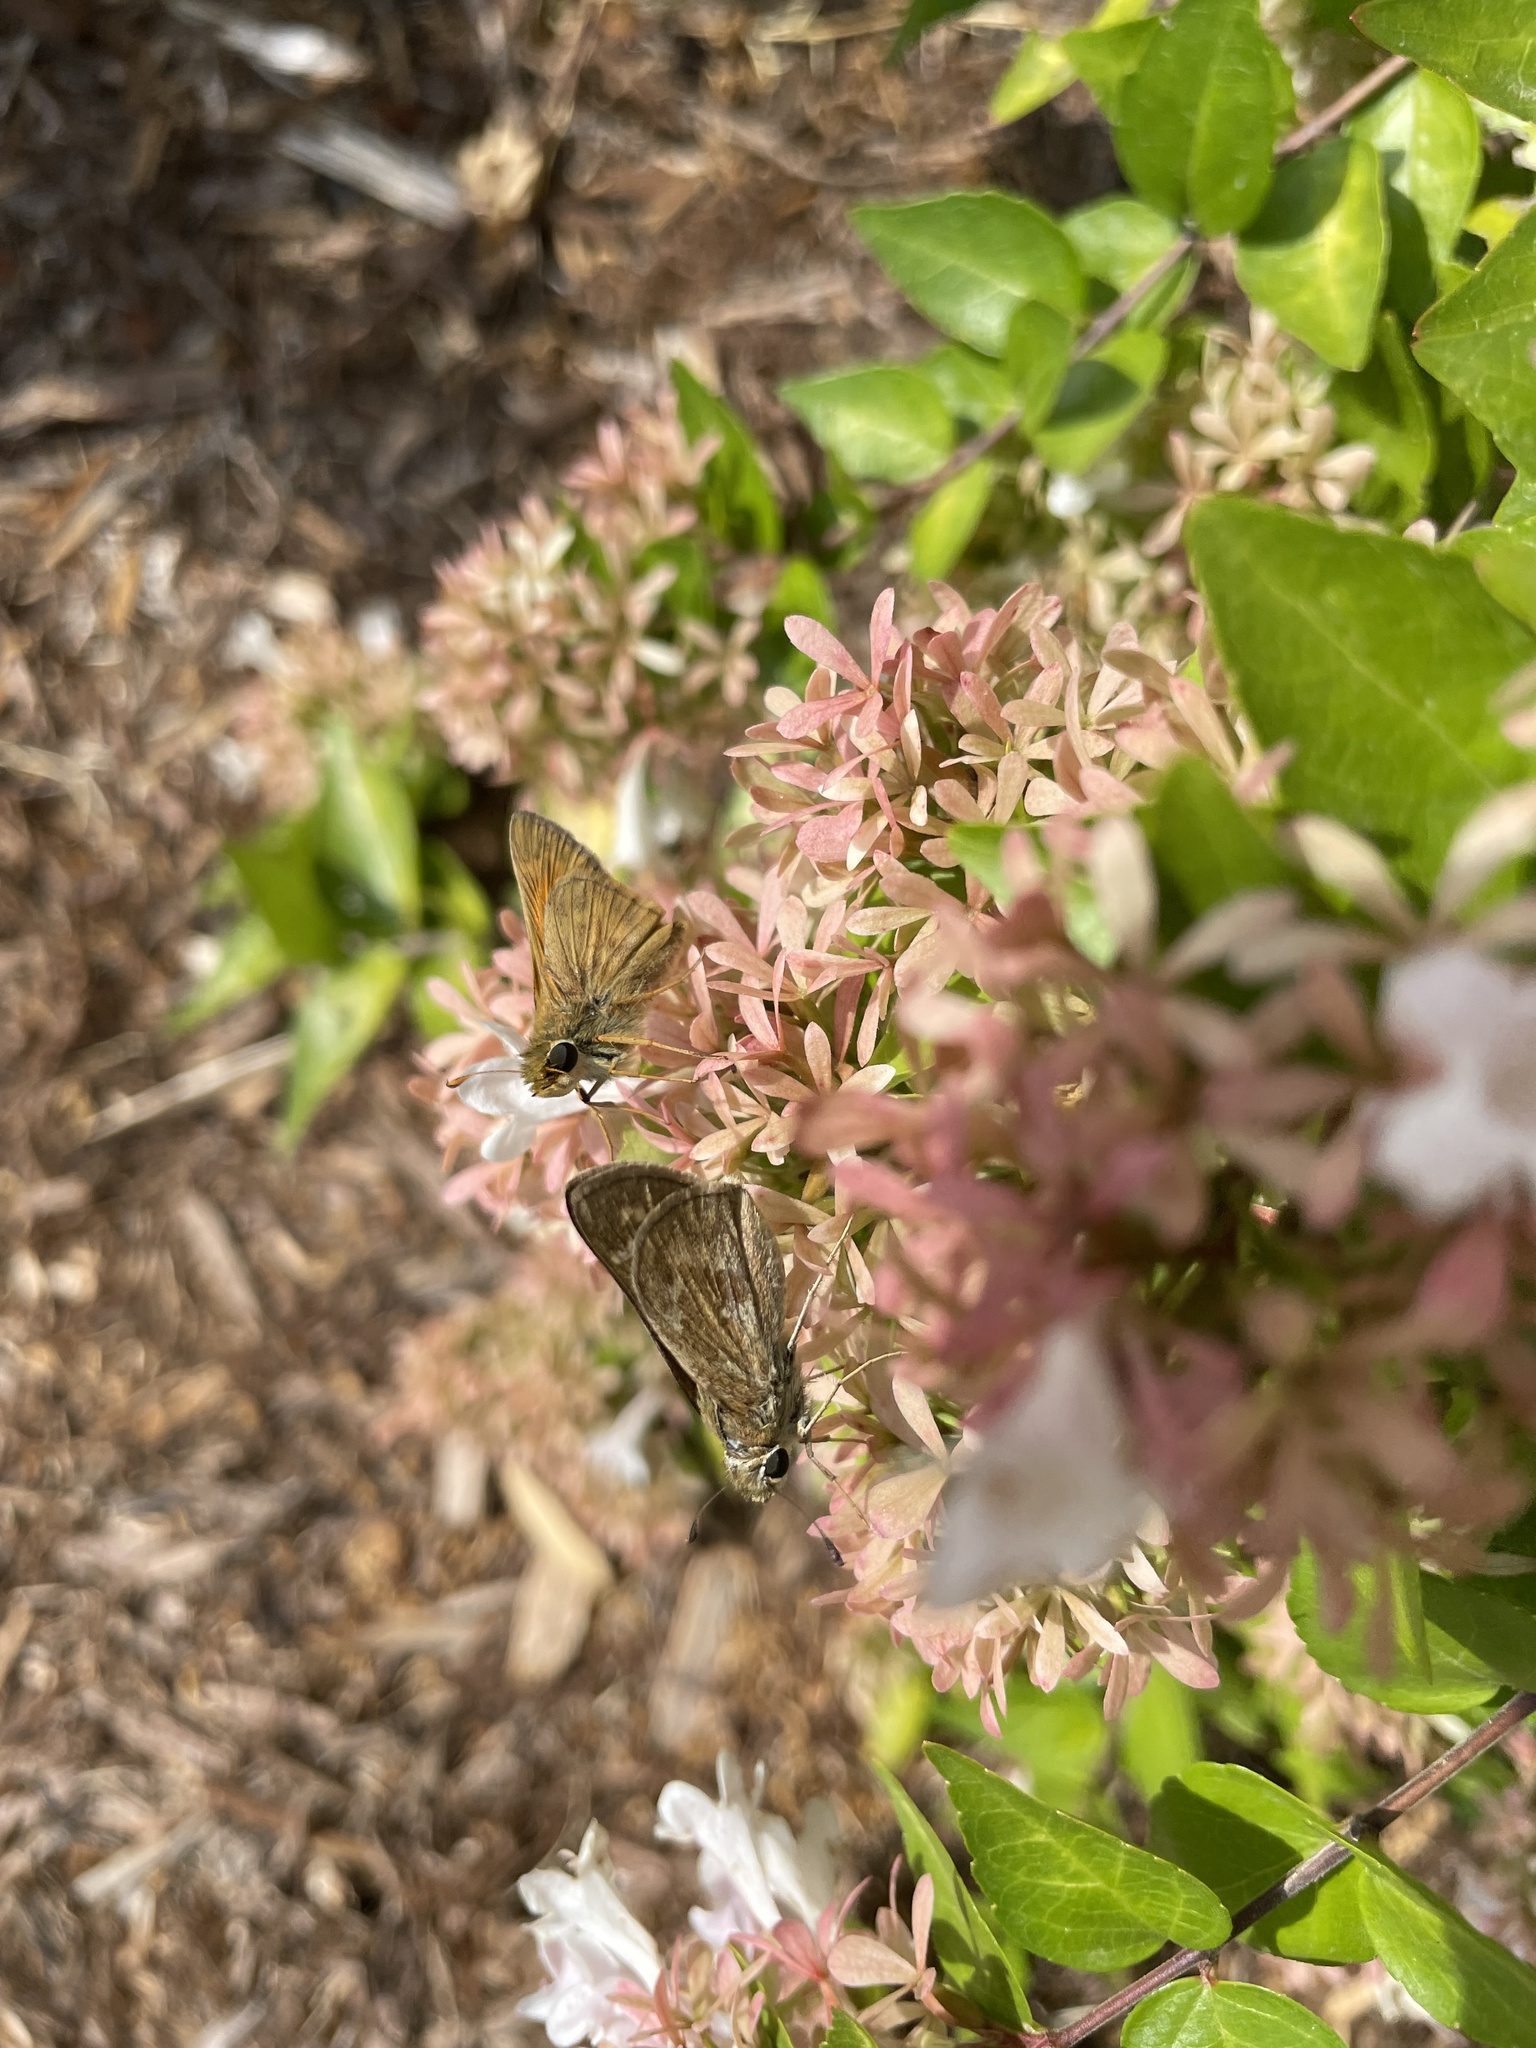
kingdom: Animalia
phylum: Arthropoda
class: Insecta
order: Lepidoptera
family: Hesperiidae
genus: Atalopedes
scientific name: Atalopedes
